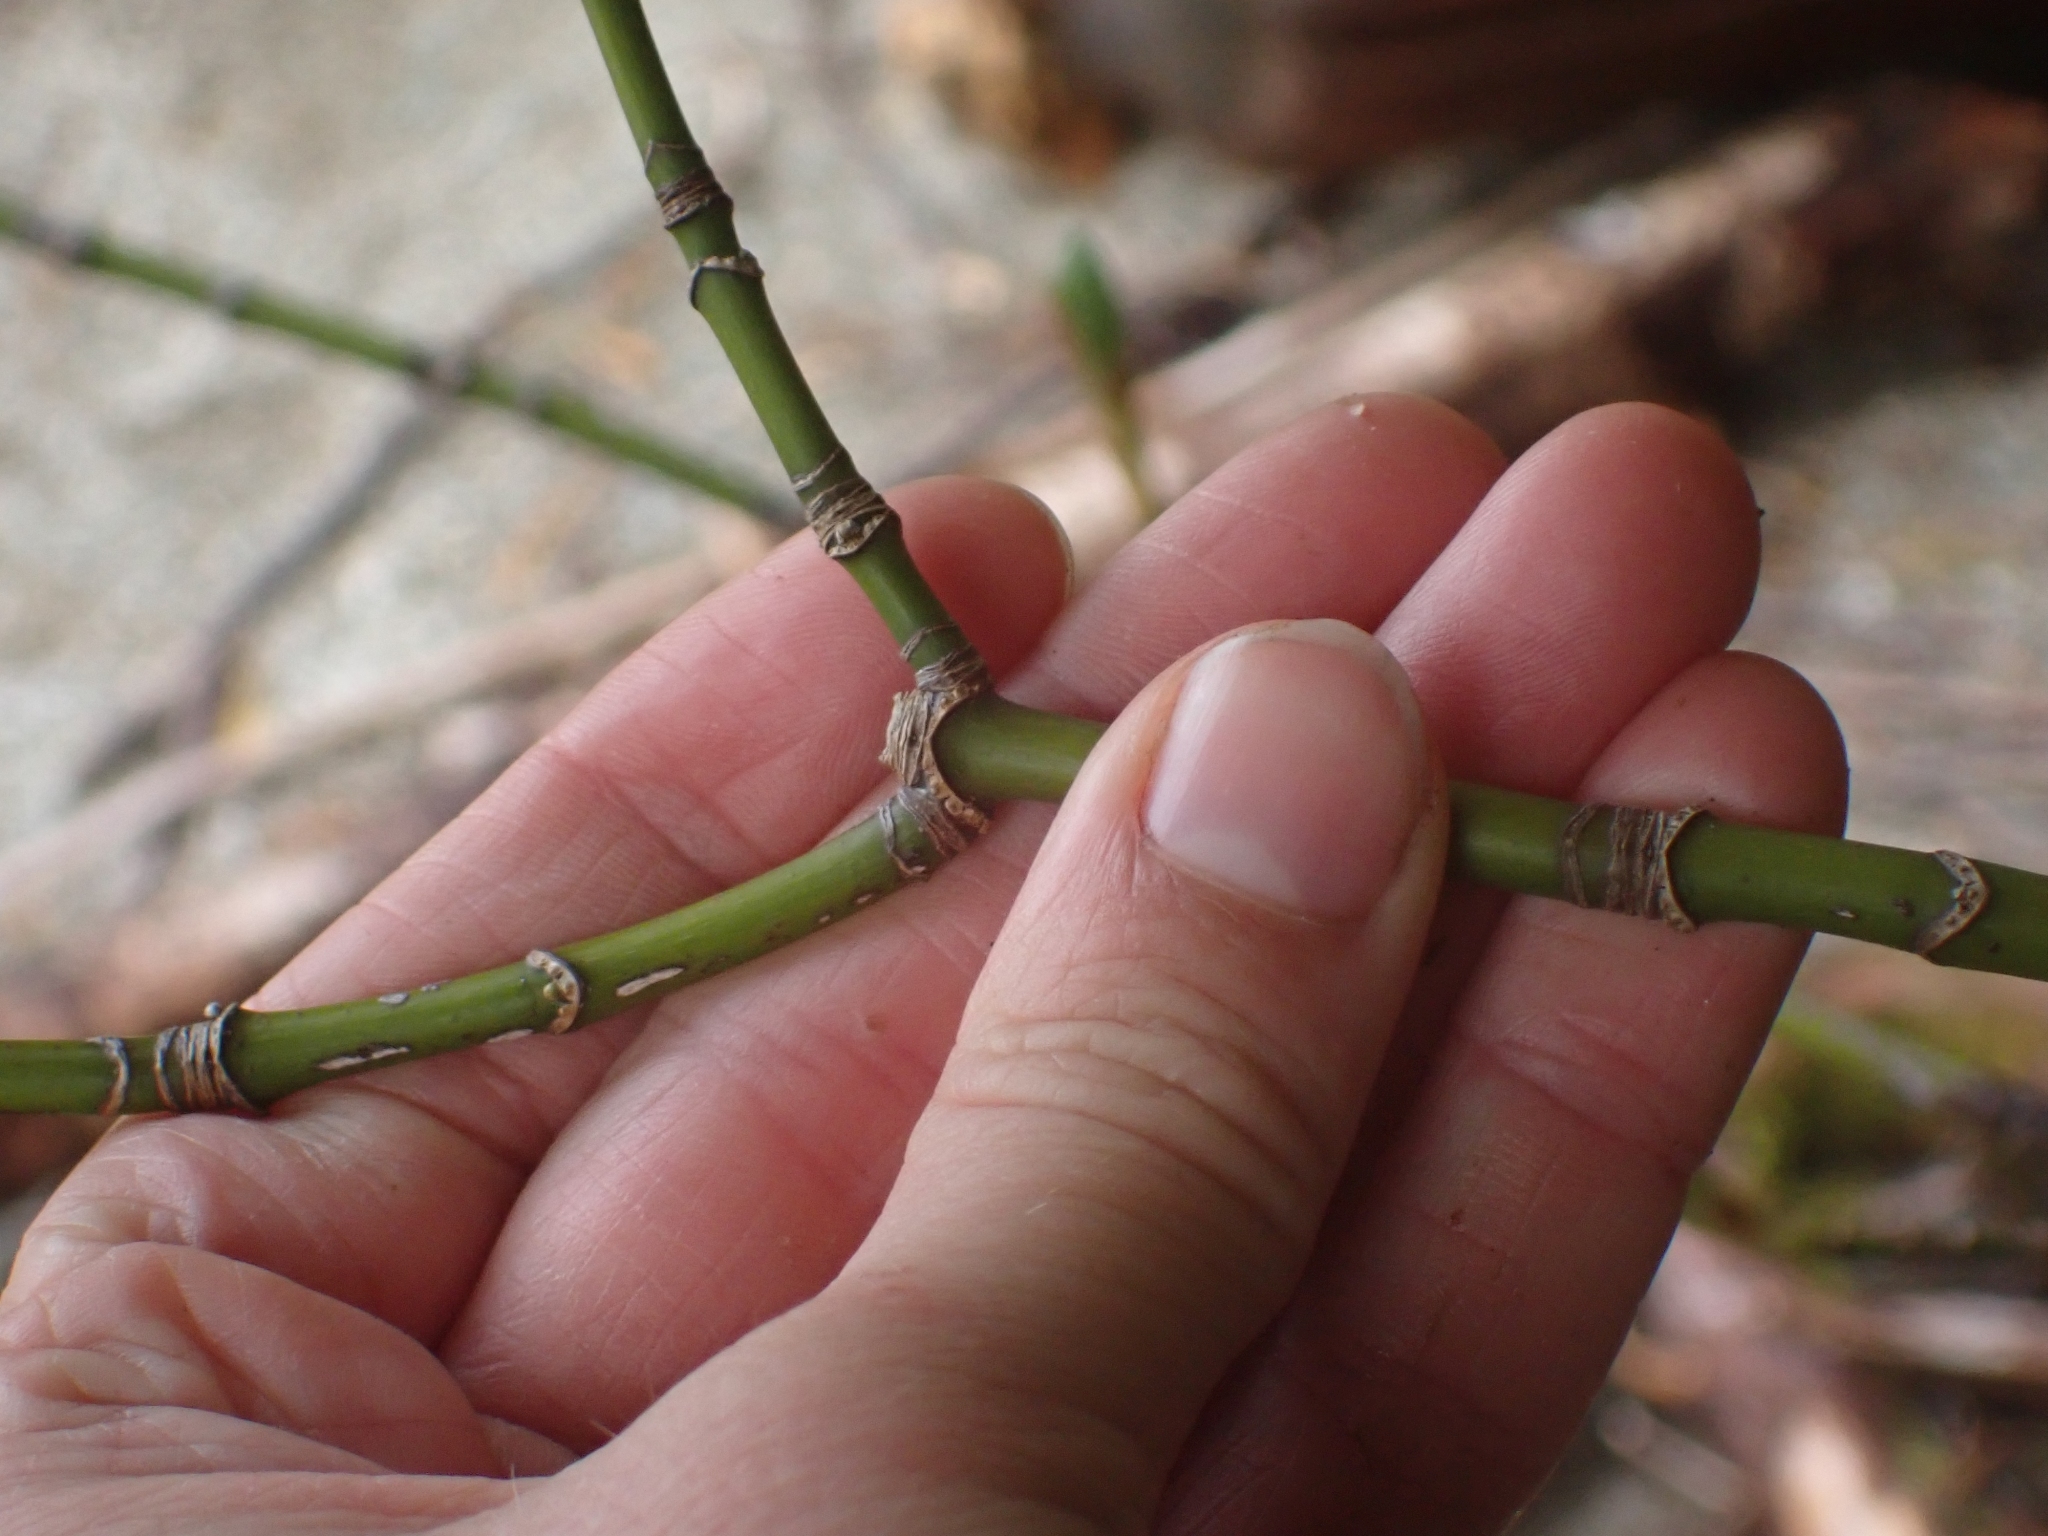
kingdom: Plantae
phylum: Tracheophyta
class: Magnoliopsida
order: Sapindales
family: Sapindaceae
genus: Acer
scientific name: Acer macrophyllum
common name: Oregon maple
